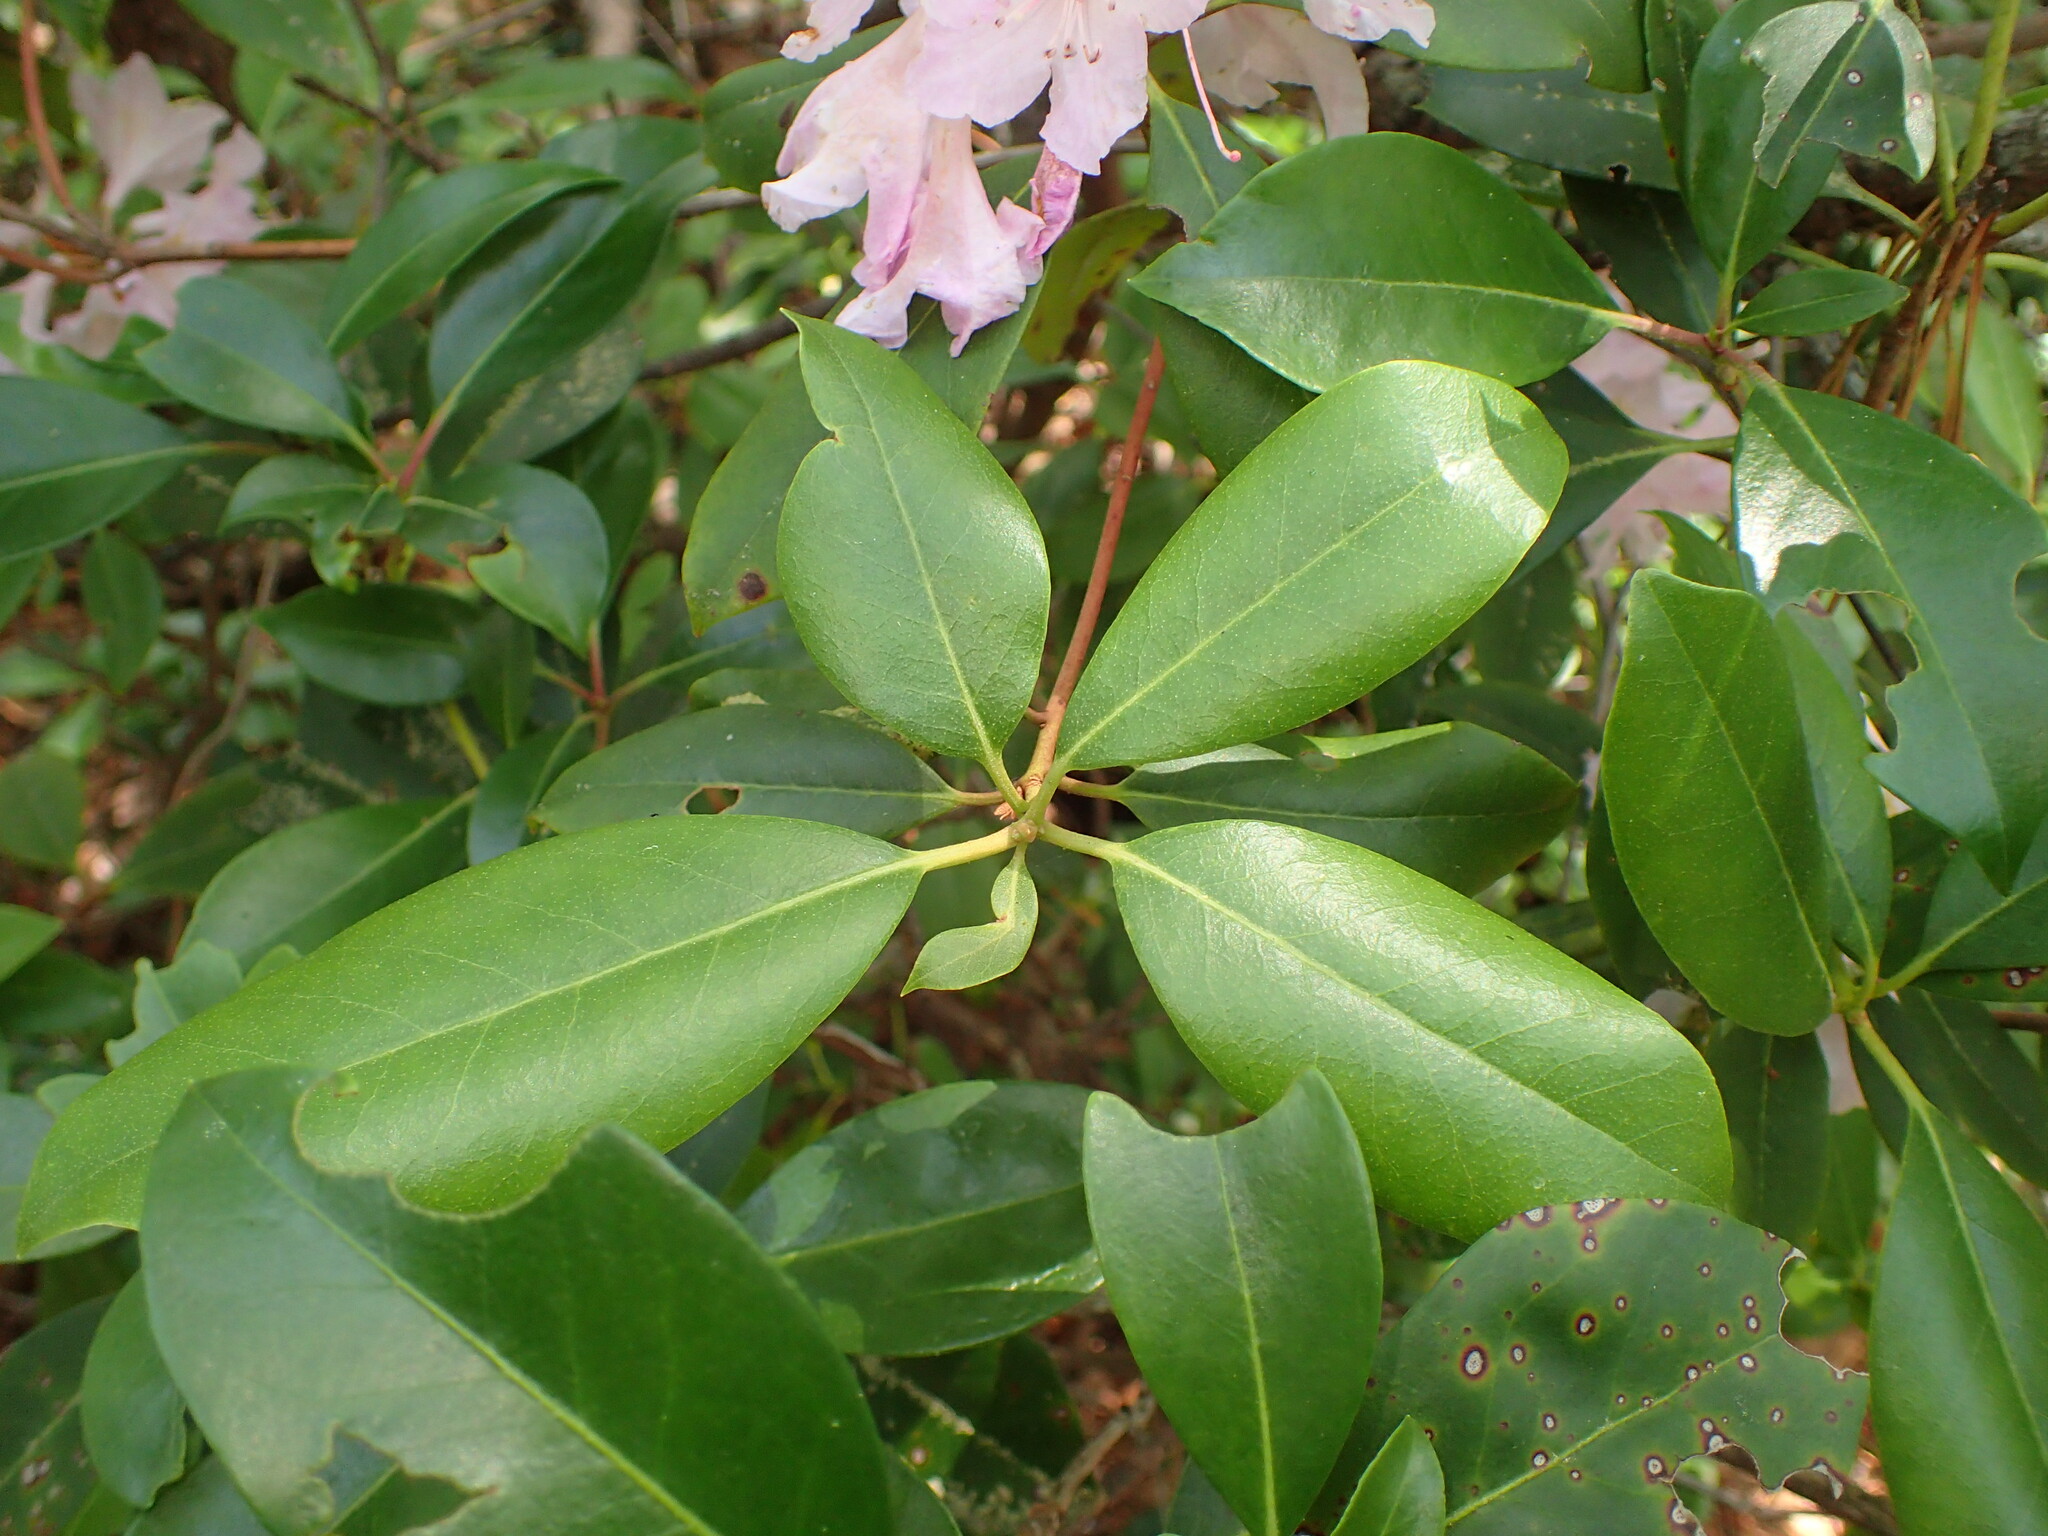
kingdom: Plantae
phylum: Tracheophyta
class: Magnoliopsida
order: Ericales
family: Ericaceae
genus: Rhododendron
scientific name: Rhododendron minus
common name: Piedmont rhododendron
